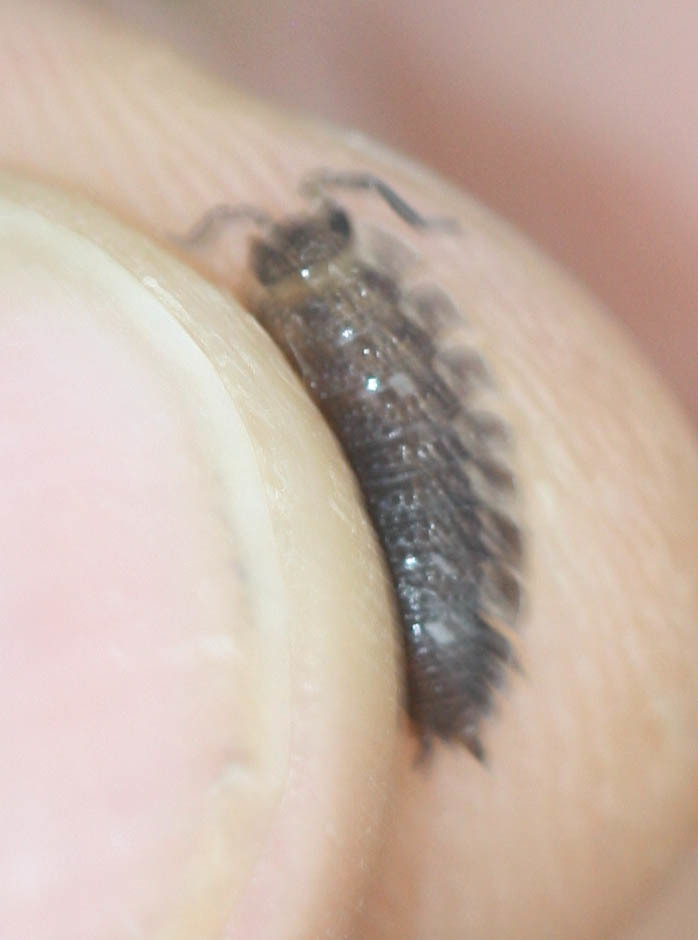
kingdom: Animalia
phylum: Arthropoda
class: Malacostraca
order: Isopoda
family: Porcellionidae
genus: Porcellio
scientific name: Porcellio scaber
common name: Common rough woodlouse
